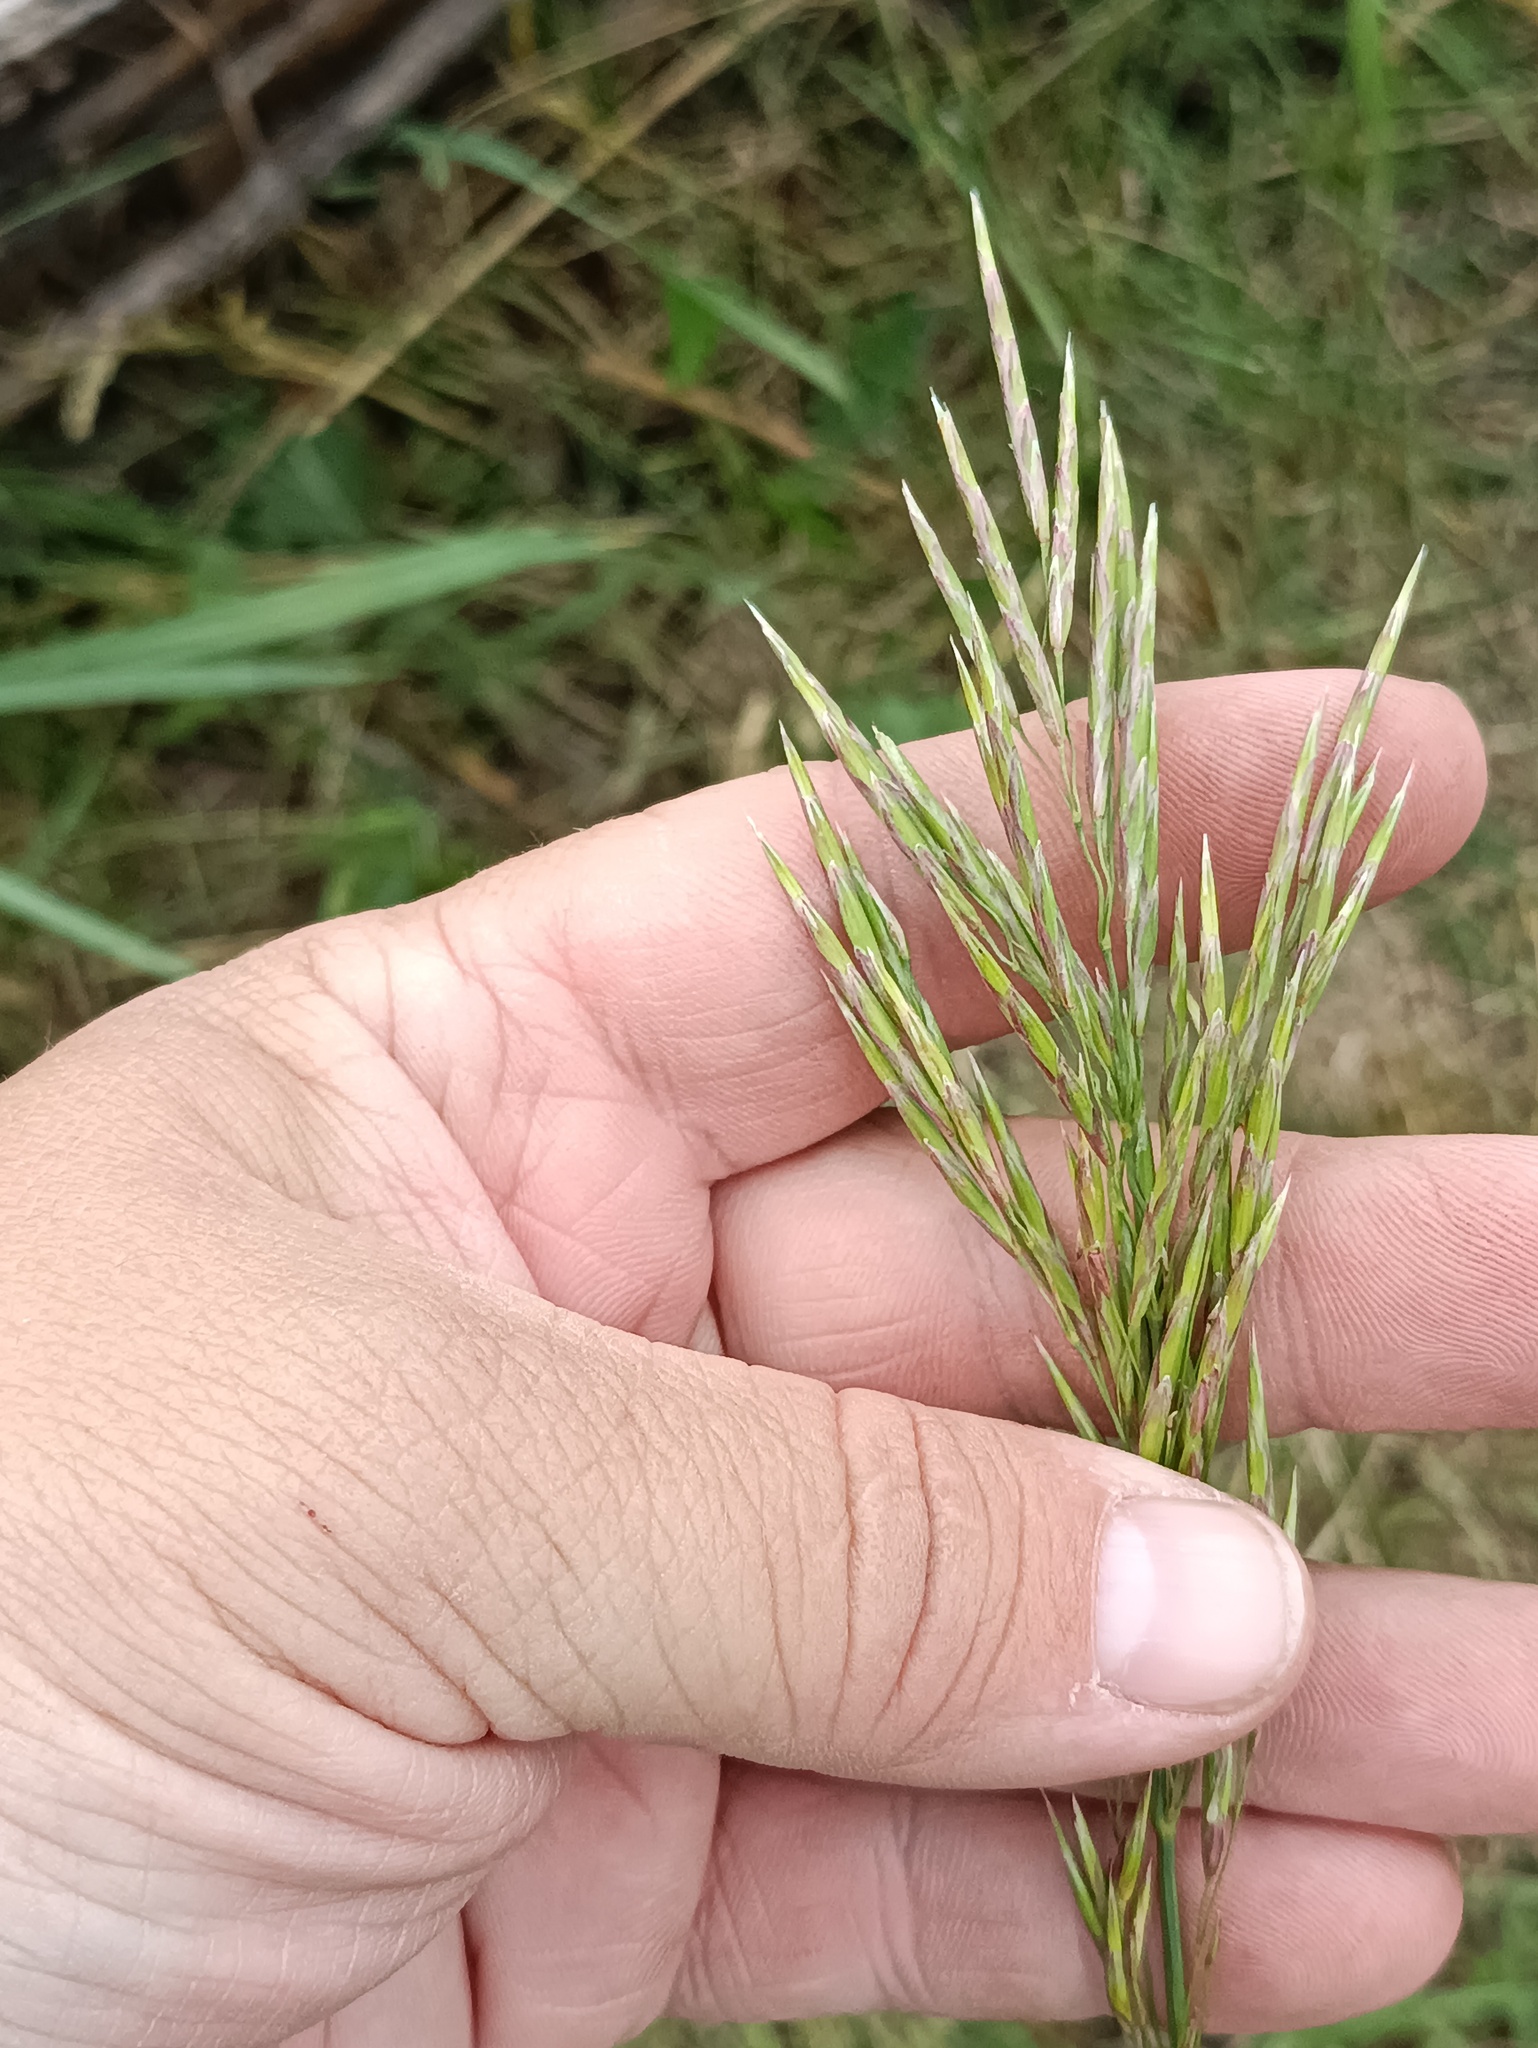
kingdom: Plantae
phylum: Tracheophyta
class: Liliopsida
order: Poales
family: Poaceae
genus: Bromus
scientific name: Bromus inermis
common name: Smooth brome
